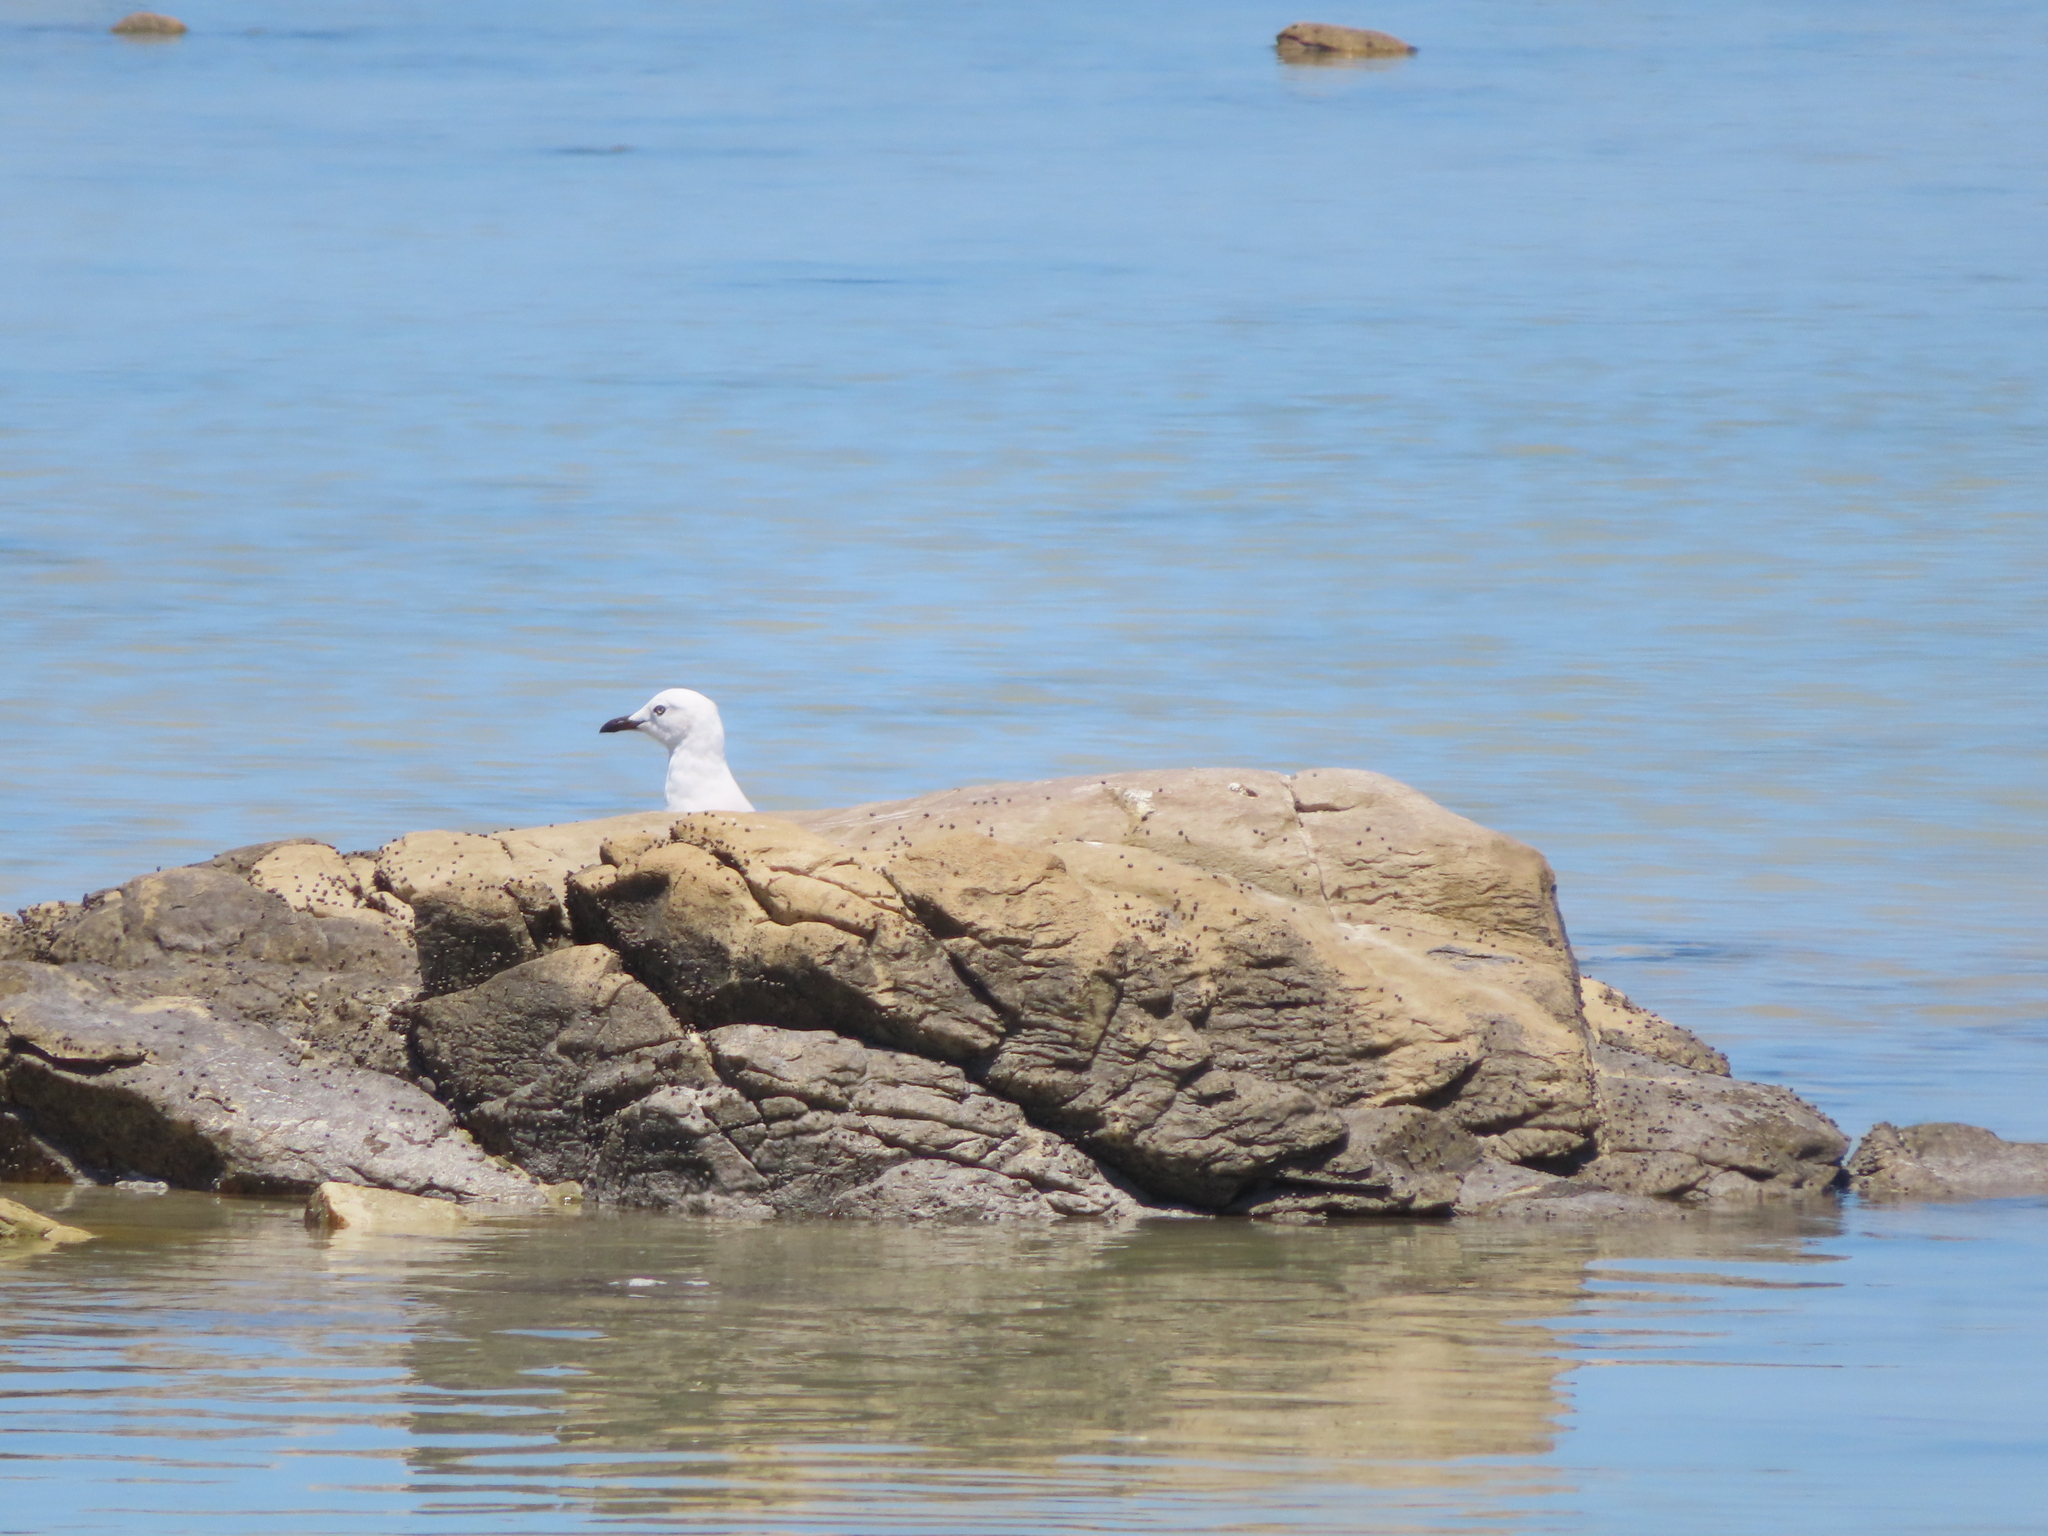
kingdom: Animalia
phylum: Chordata
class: Aves
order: Charadriiformes
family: Laridae
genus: Chroicocephalus
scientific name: Chroicocephalus hartlaubii
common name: Hartlaub's gull
